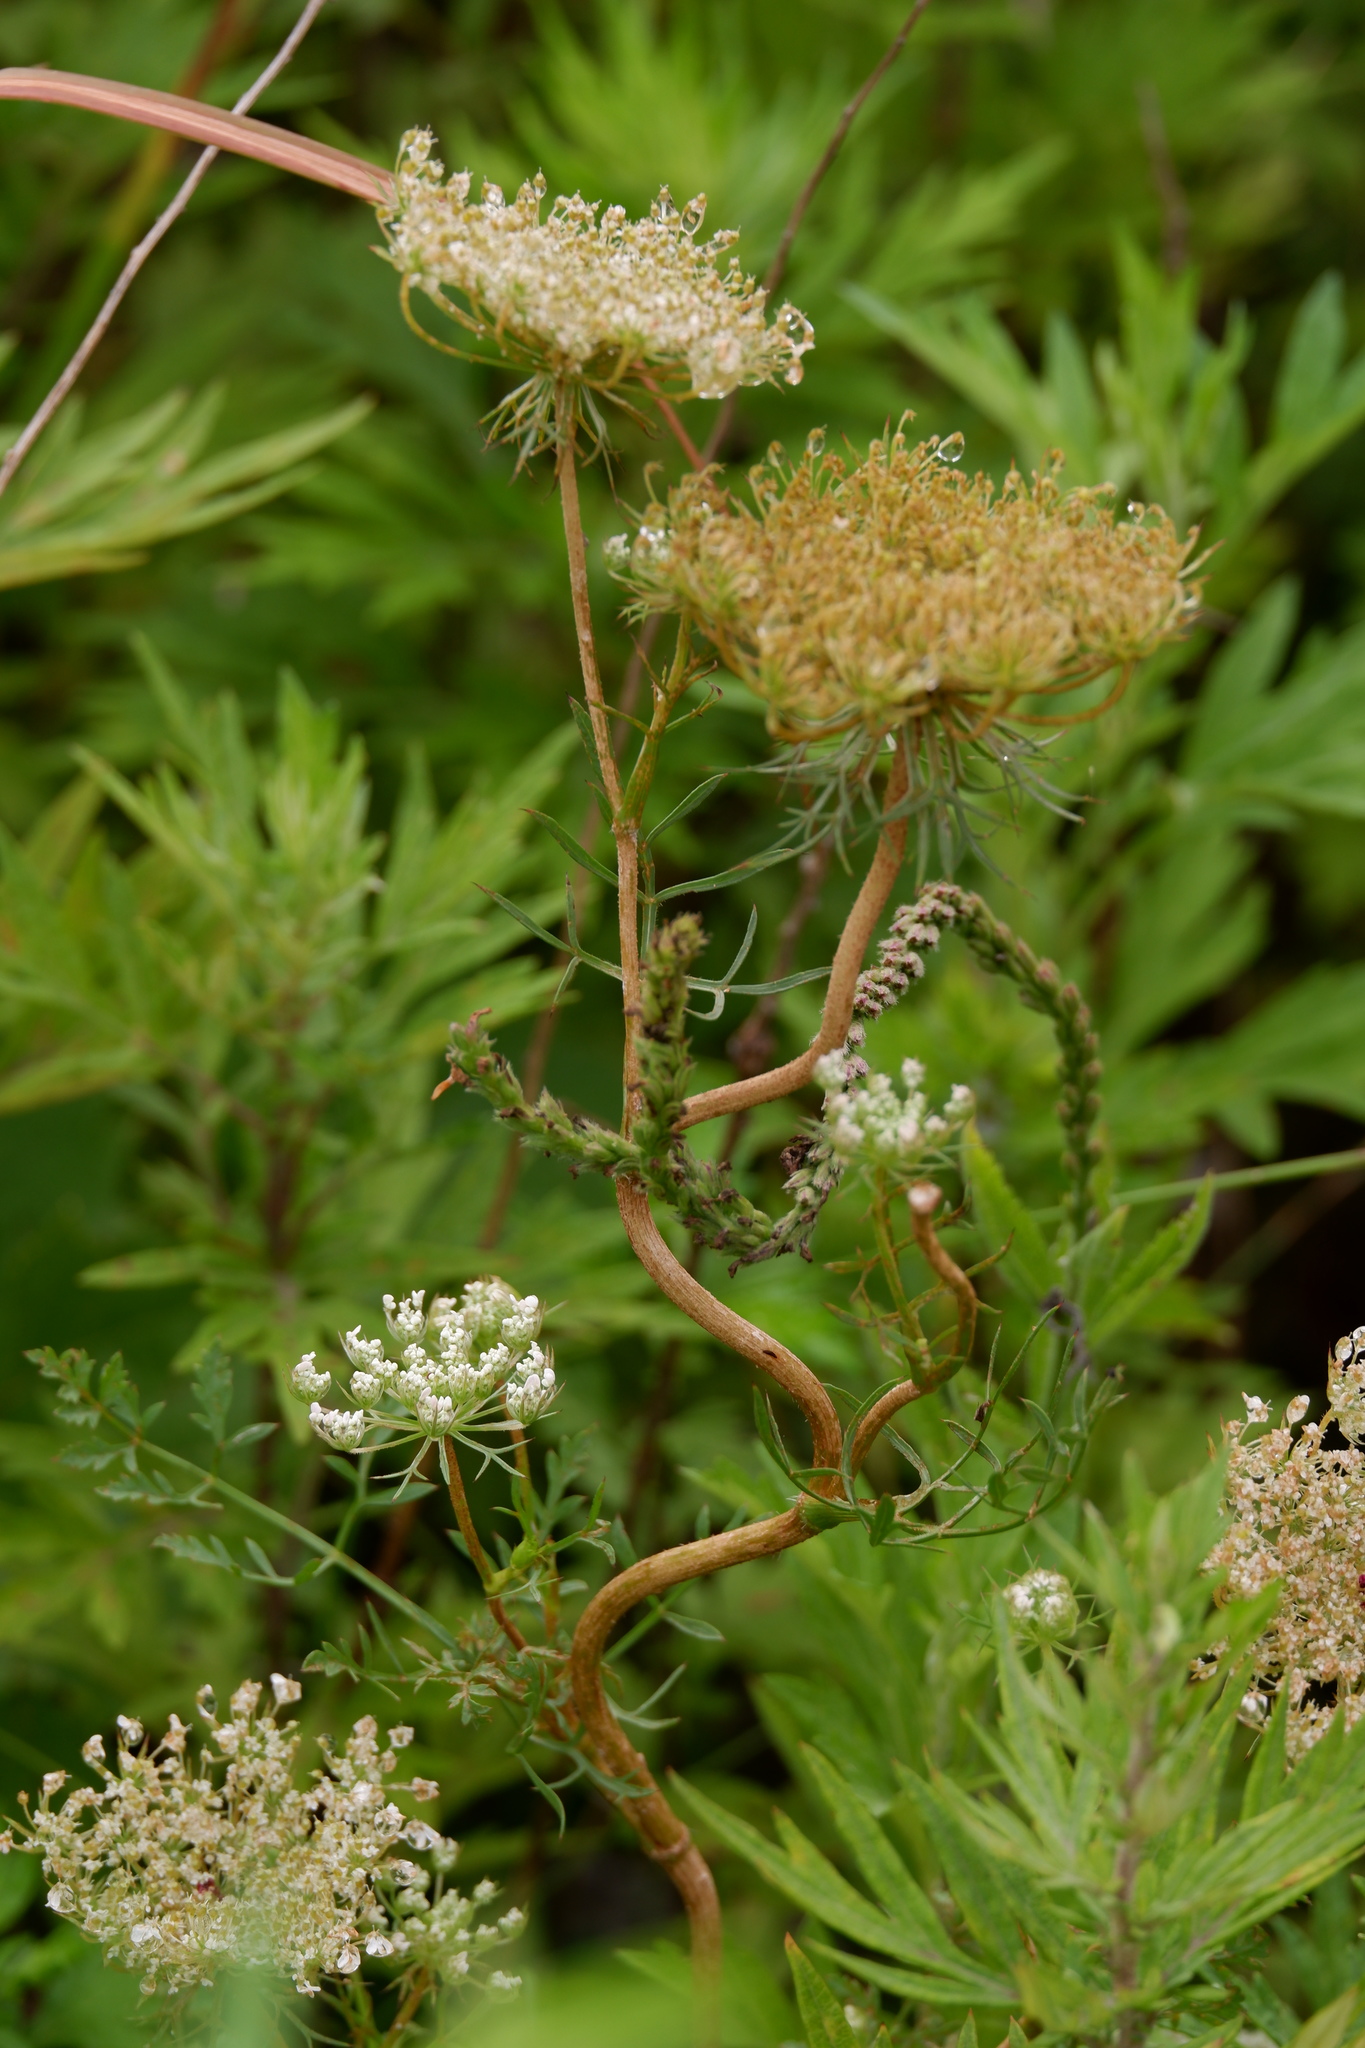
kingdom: Plantae
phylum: Tracheophyta
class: Magnoliopsida
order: Apiales
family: Apiaceae
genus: Daucus
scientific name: Daucus carota
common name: Wild carrot
